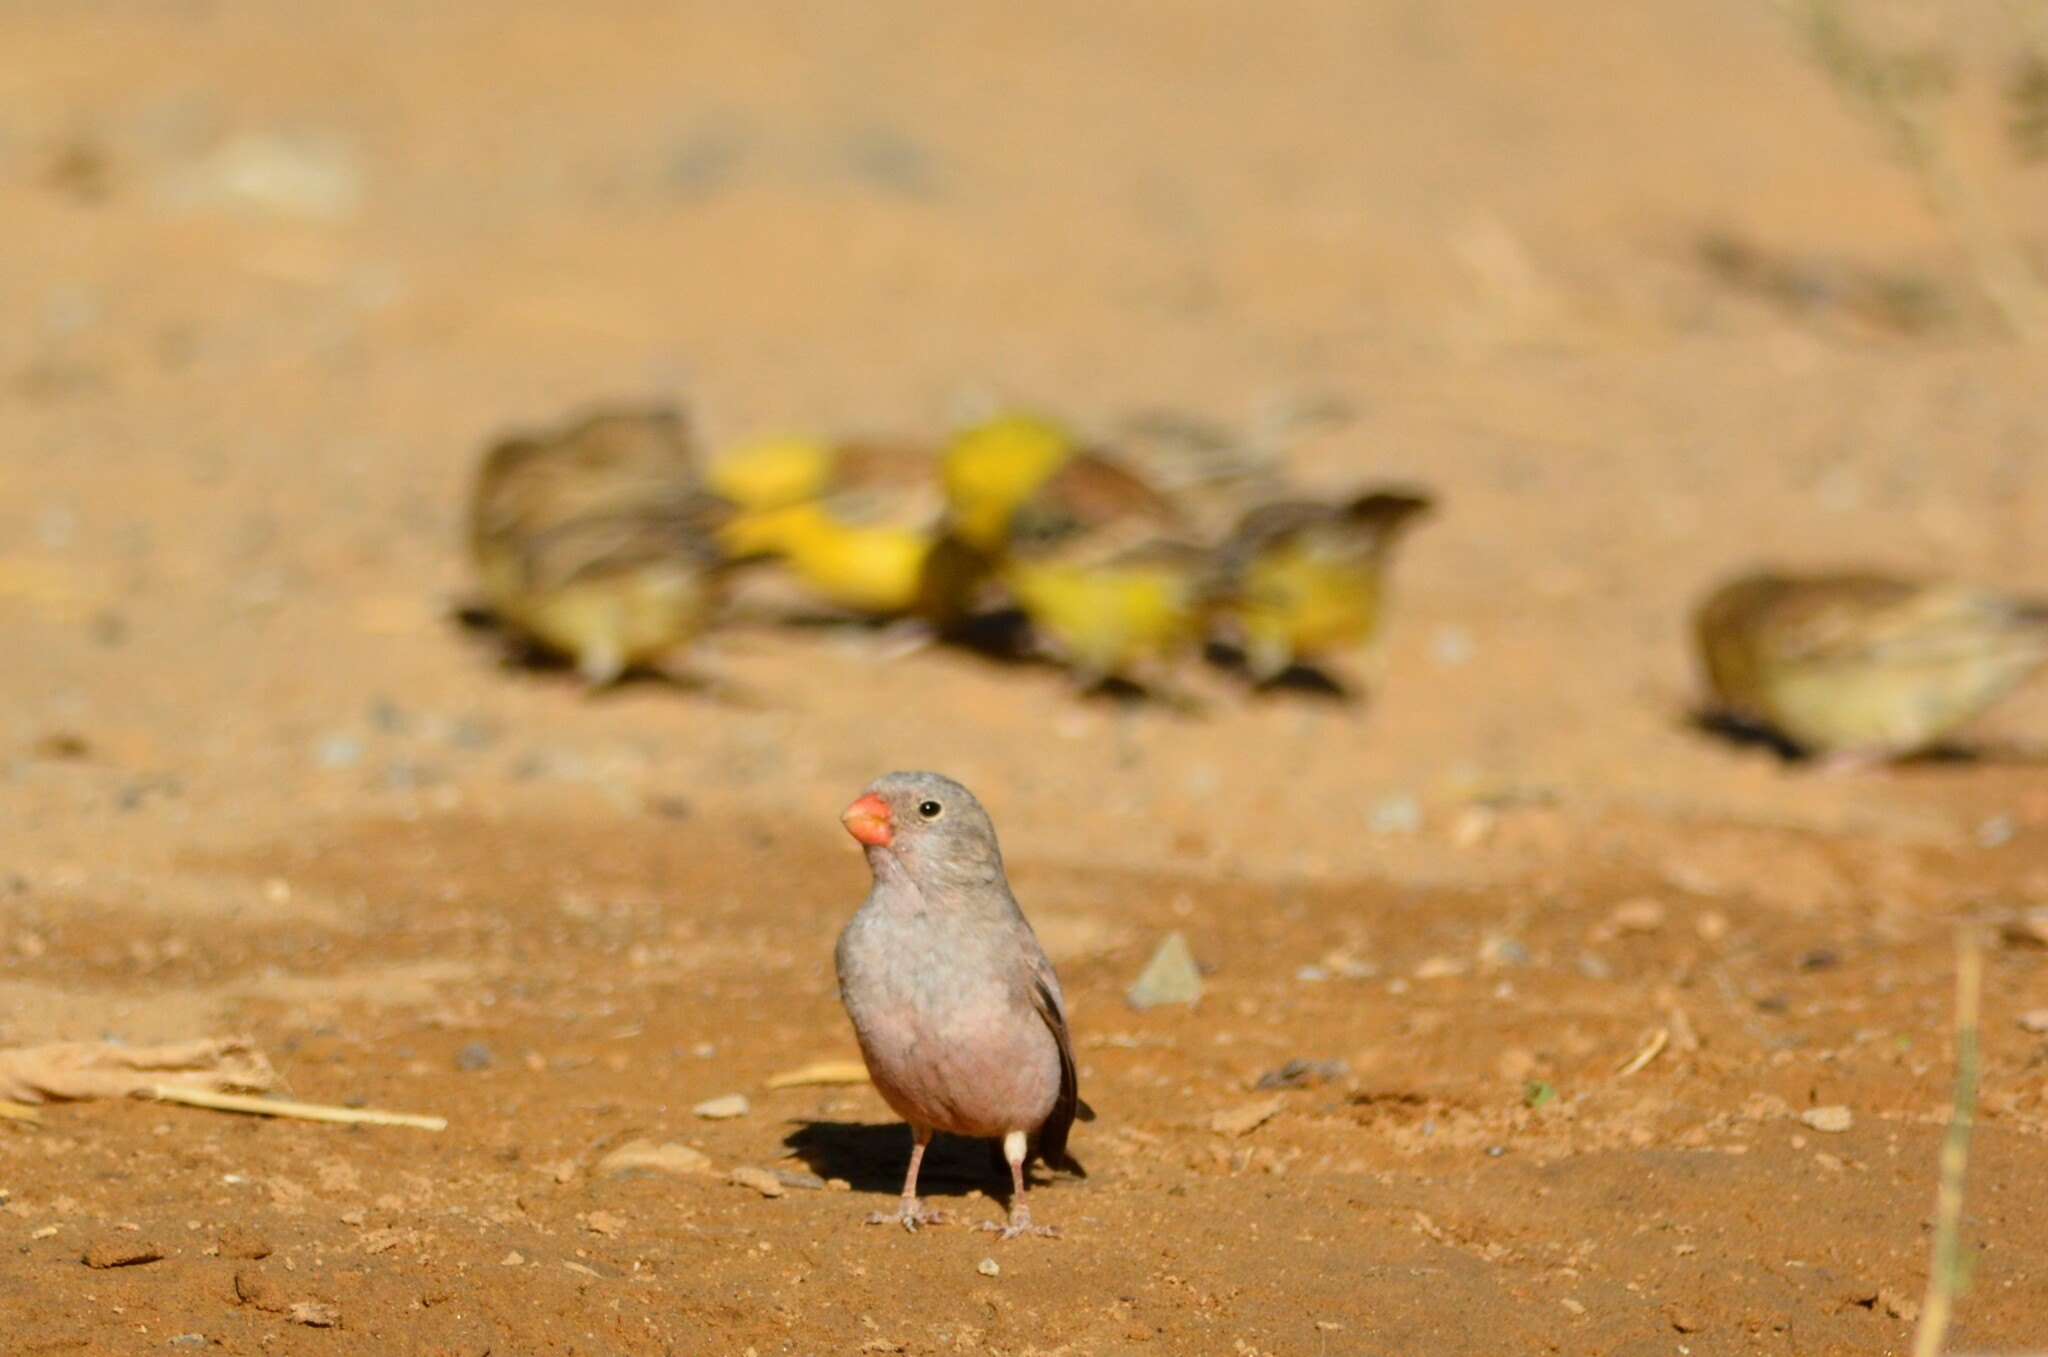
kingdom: Animalia
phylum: Chordata
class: Aves
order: Passeriformes
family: Fringillidae
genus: Bucanetes
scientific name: Bucanetes githagineus
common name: Trumpeter finch
